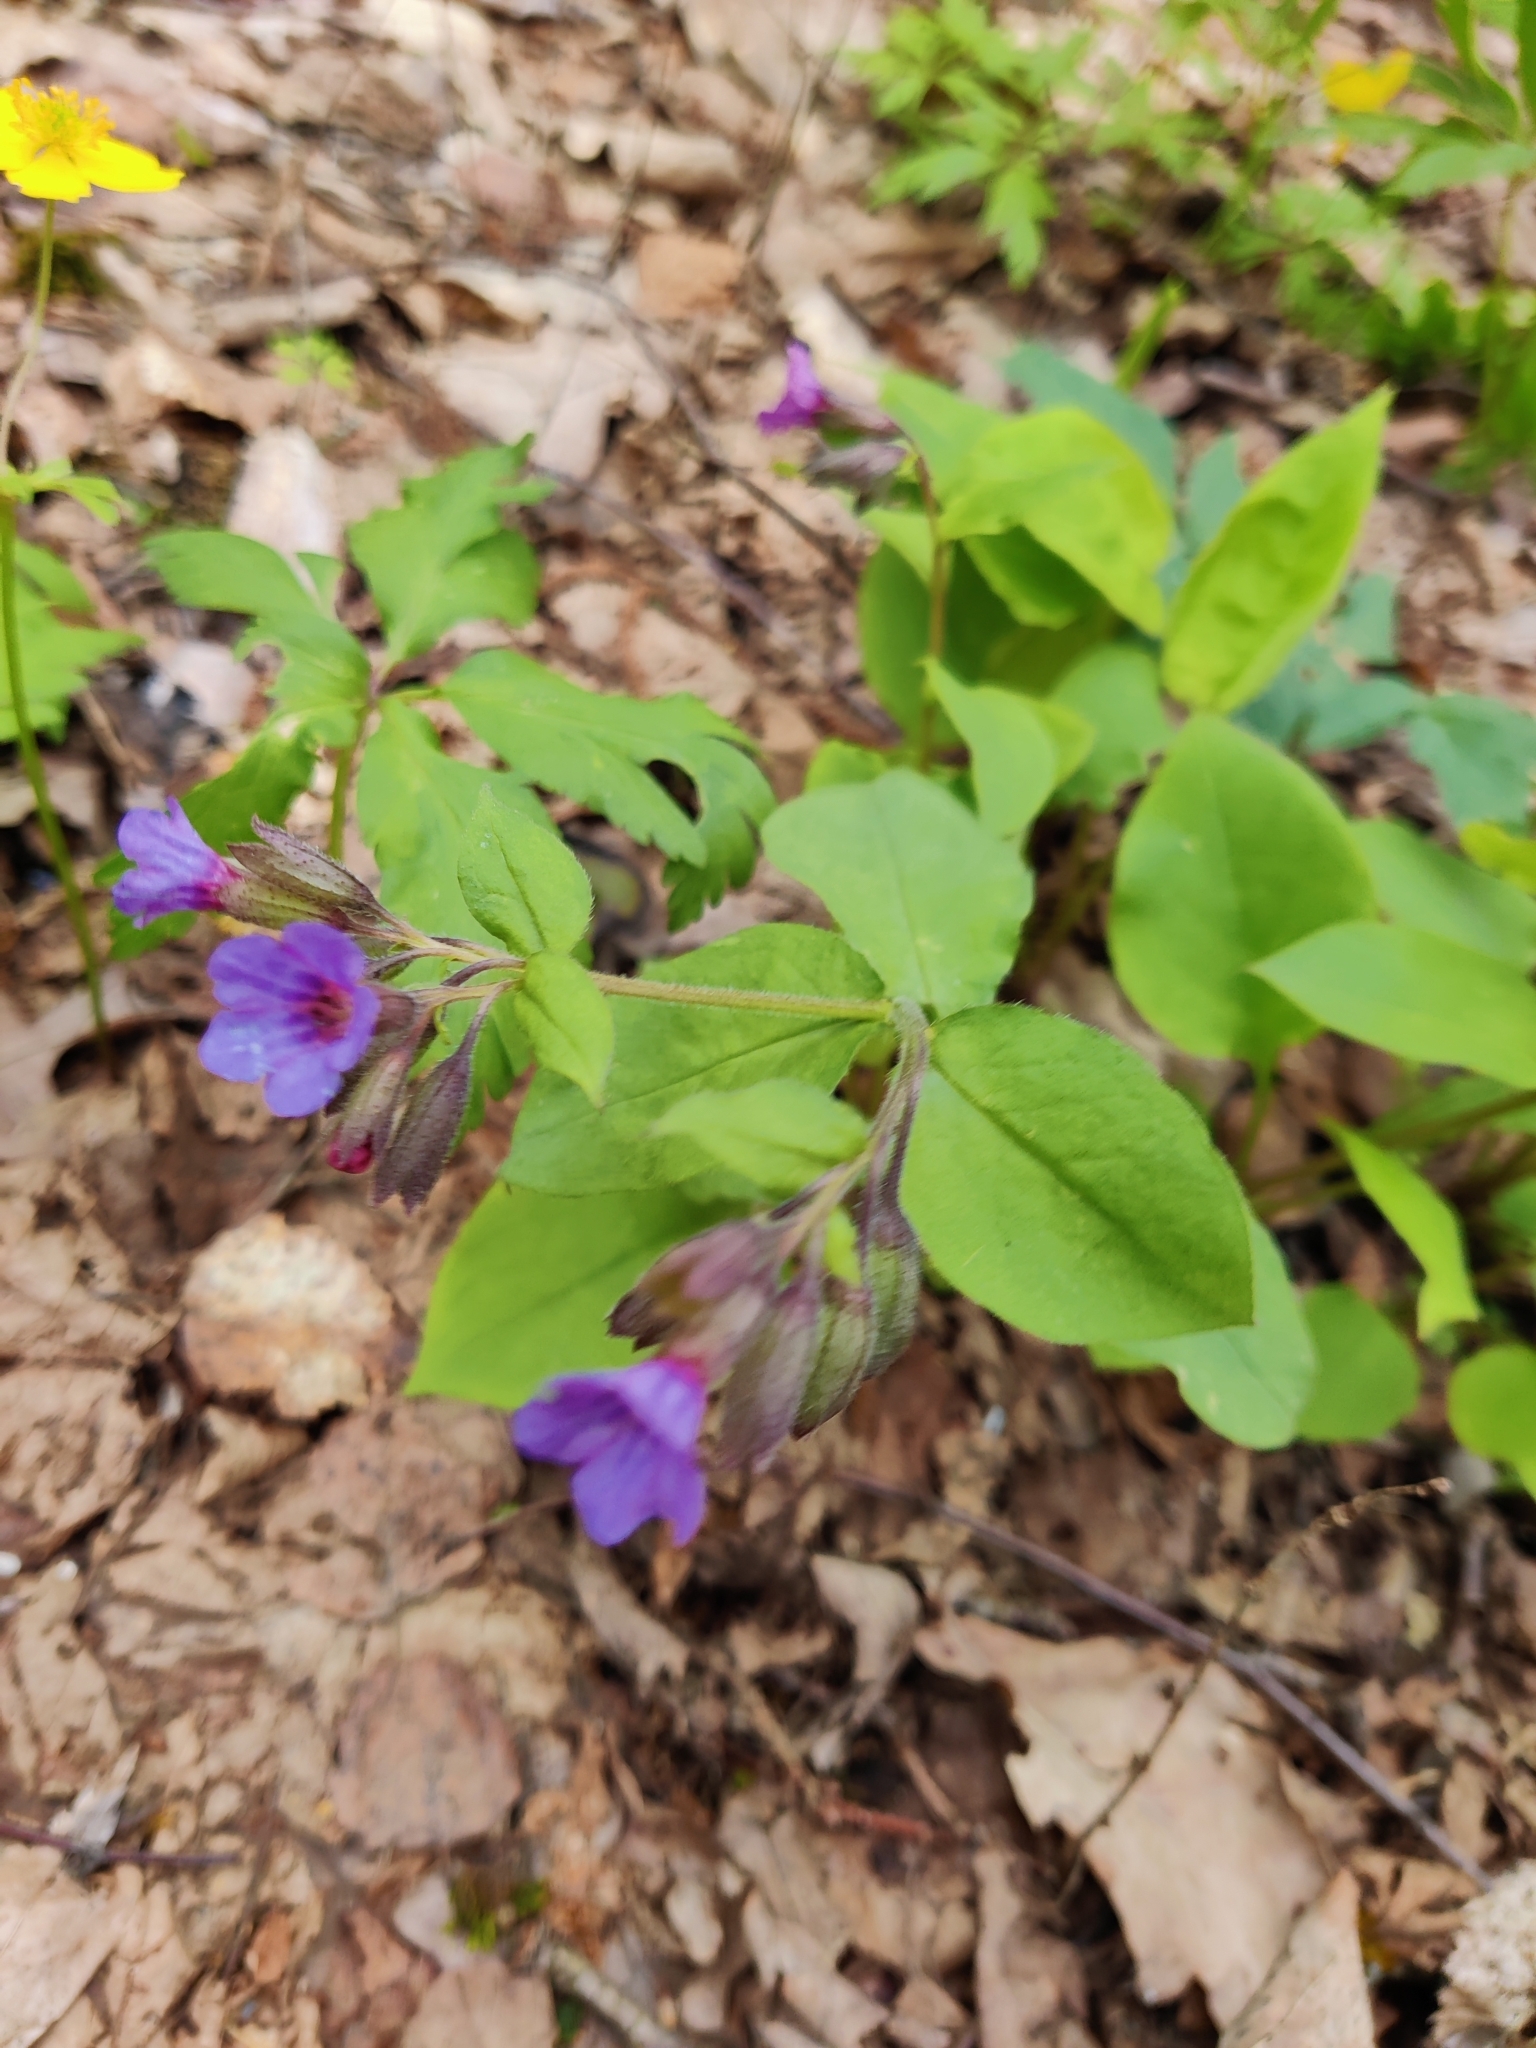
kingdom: Plantae
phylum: Tracheophyta
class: Magnoliopsida
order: Boraginales
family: Boraginaceae
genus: Pulmonaria
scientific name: Pulmonaria obscura
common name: Suffolk lungwort
